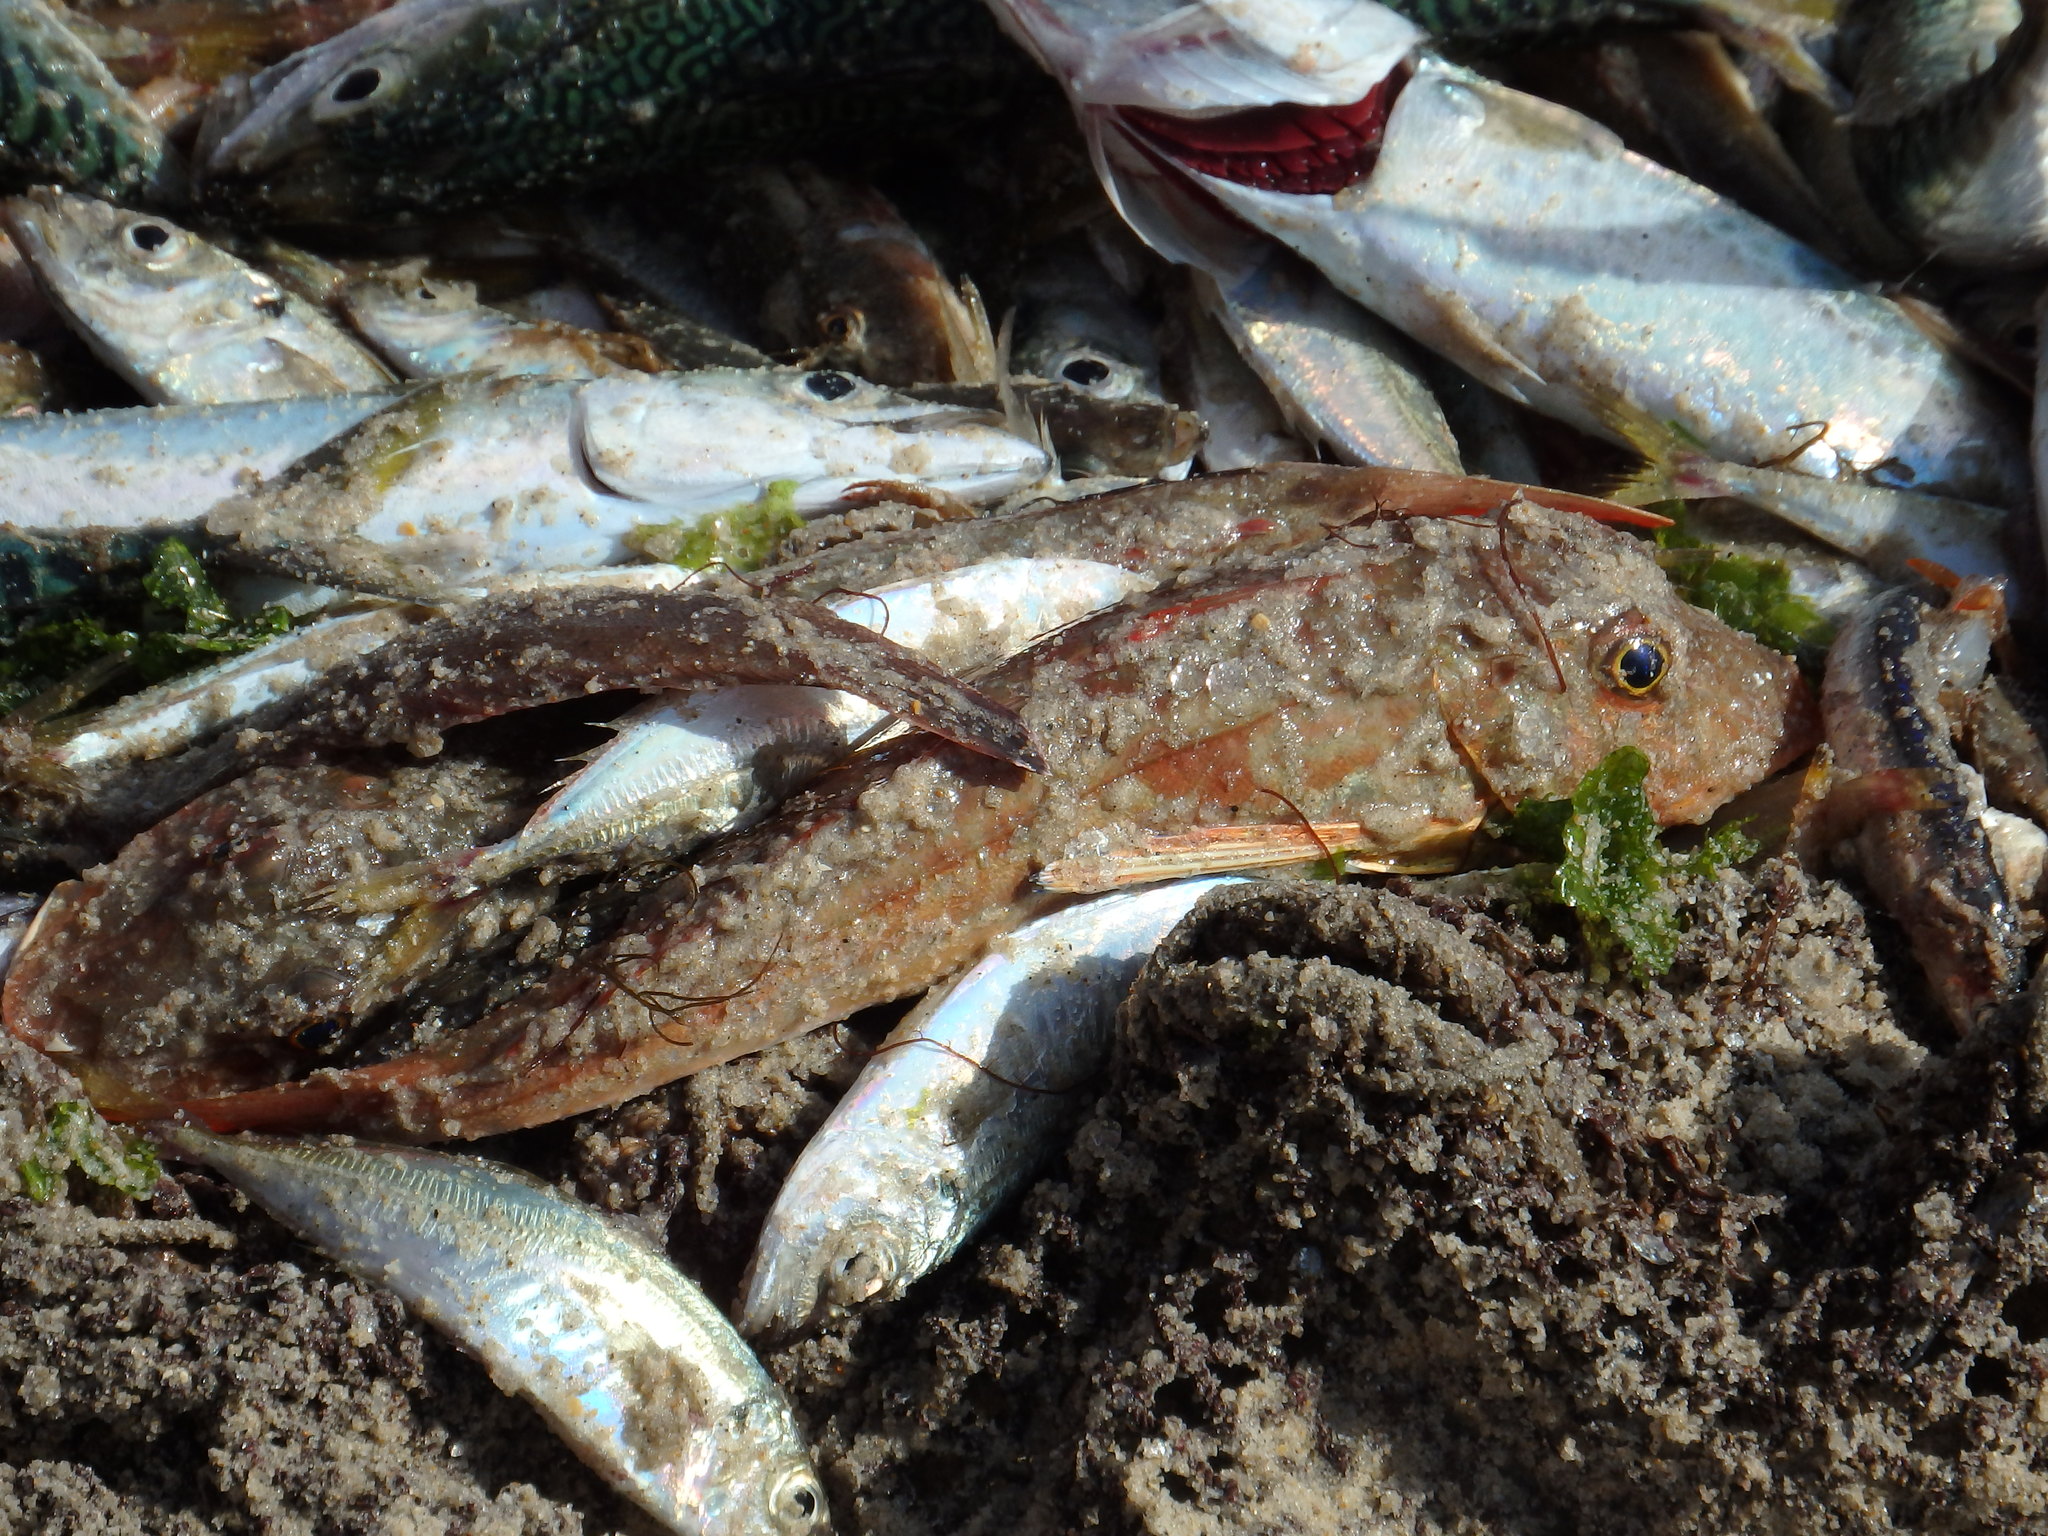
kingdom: Animalia
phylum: Chordata
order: Scorpaeniformes
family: Triglidae
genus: Chelidonichthys
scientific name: Chelidonichthys lucerna
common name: Tub gurnard
